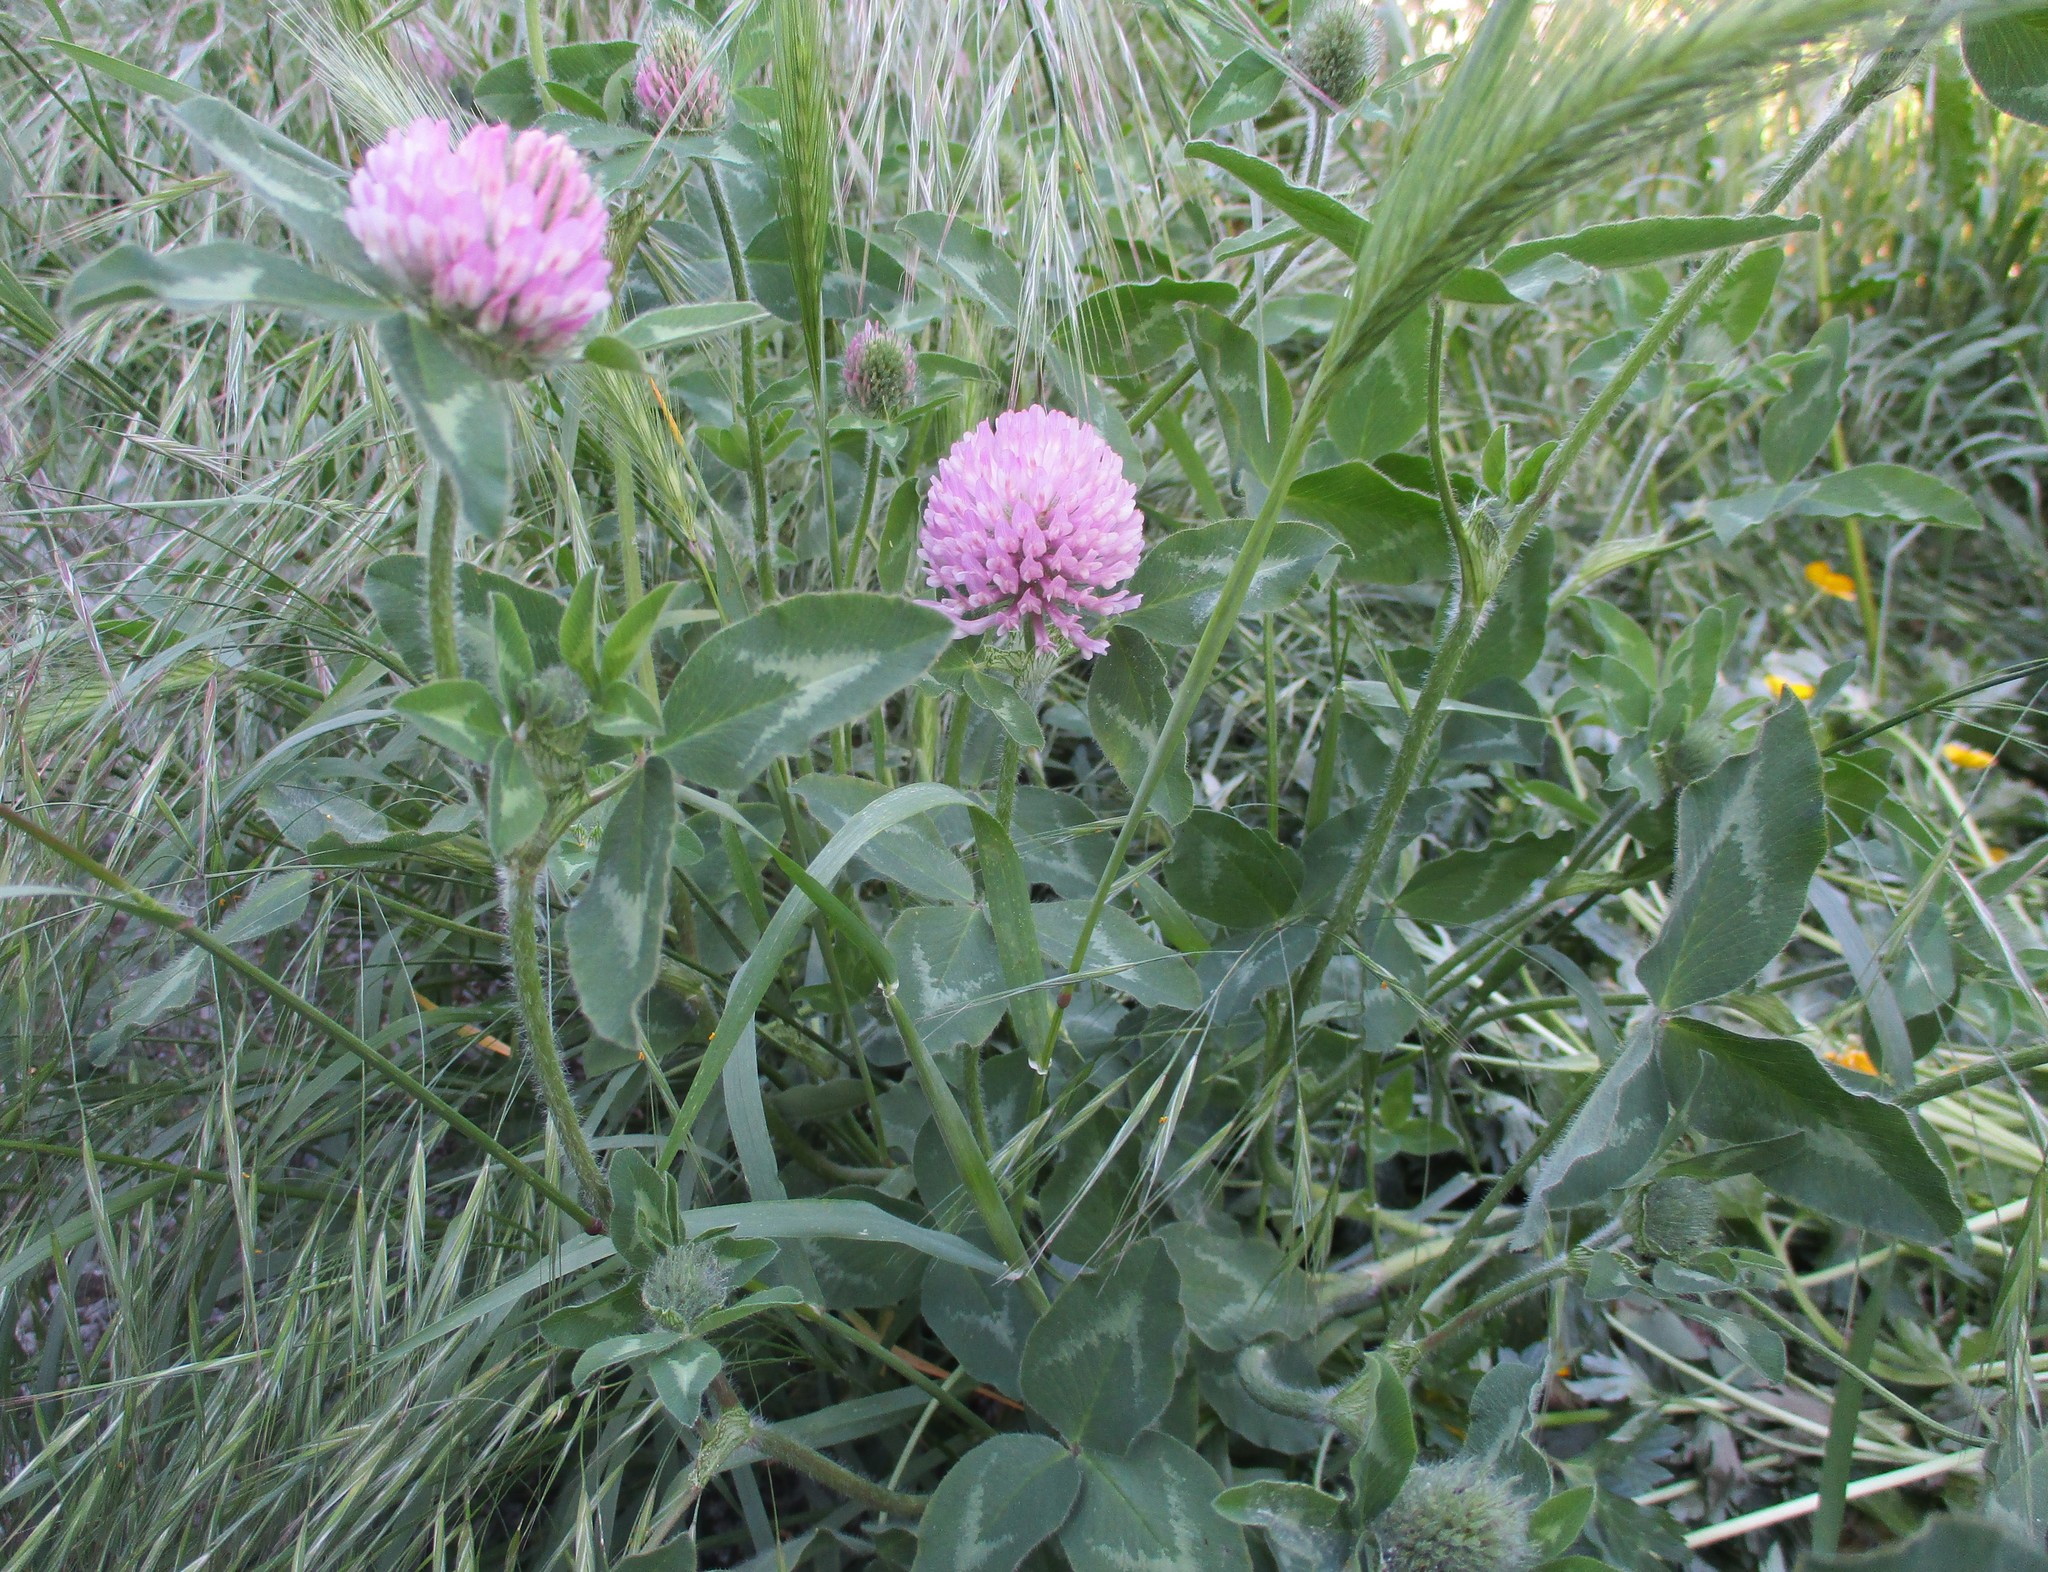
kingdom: Plantae
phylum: Tracheophyta
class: Magnoliopsida
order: Fabales
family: Fabaceae
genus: Trifolium
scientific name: Trifolium pratense
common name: Red clover
